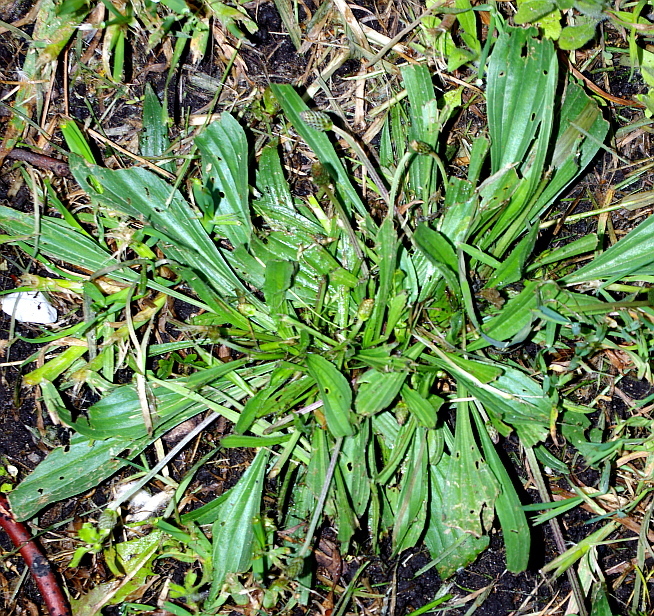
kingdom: Plantae
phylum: Tracheophyta
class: Magnoliopsida
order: Lamiales
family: Plantaginaceae
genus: Plantago
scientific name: Plantago lanceolata
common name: Ribwort plantain
